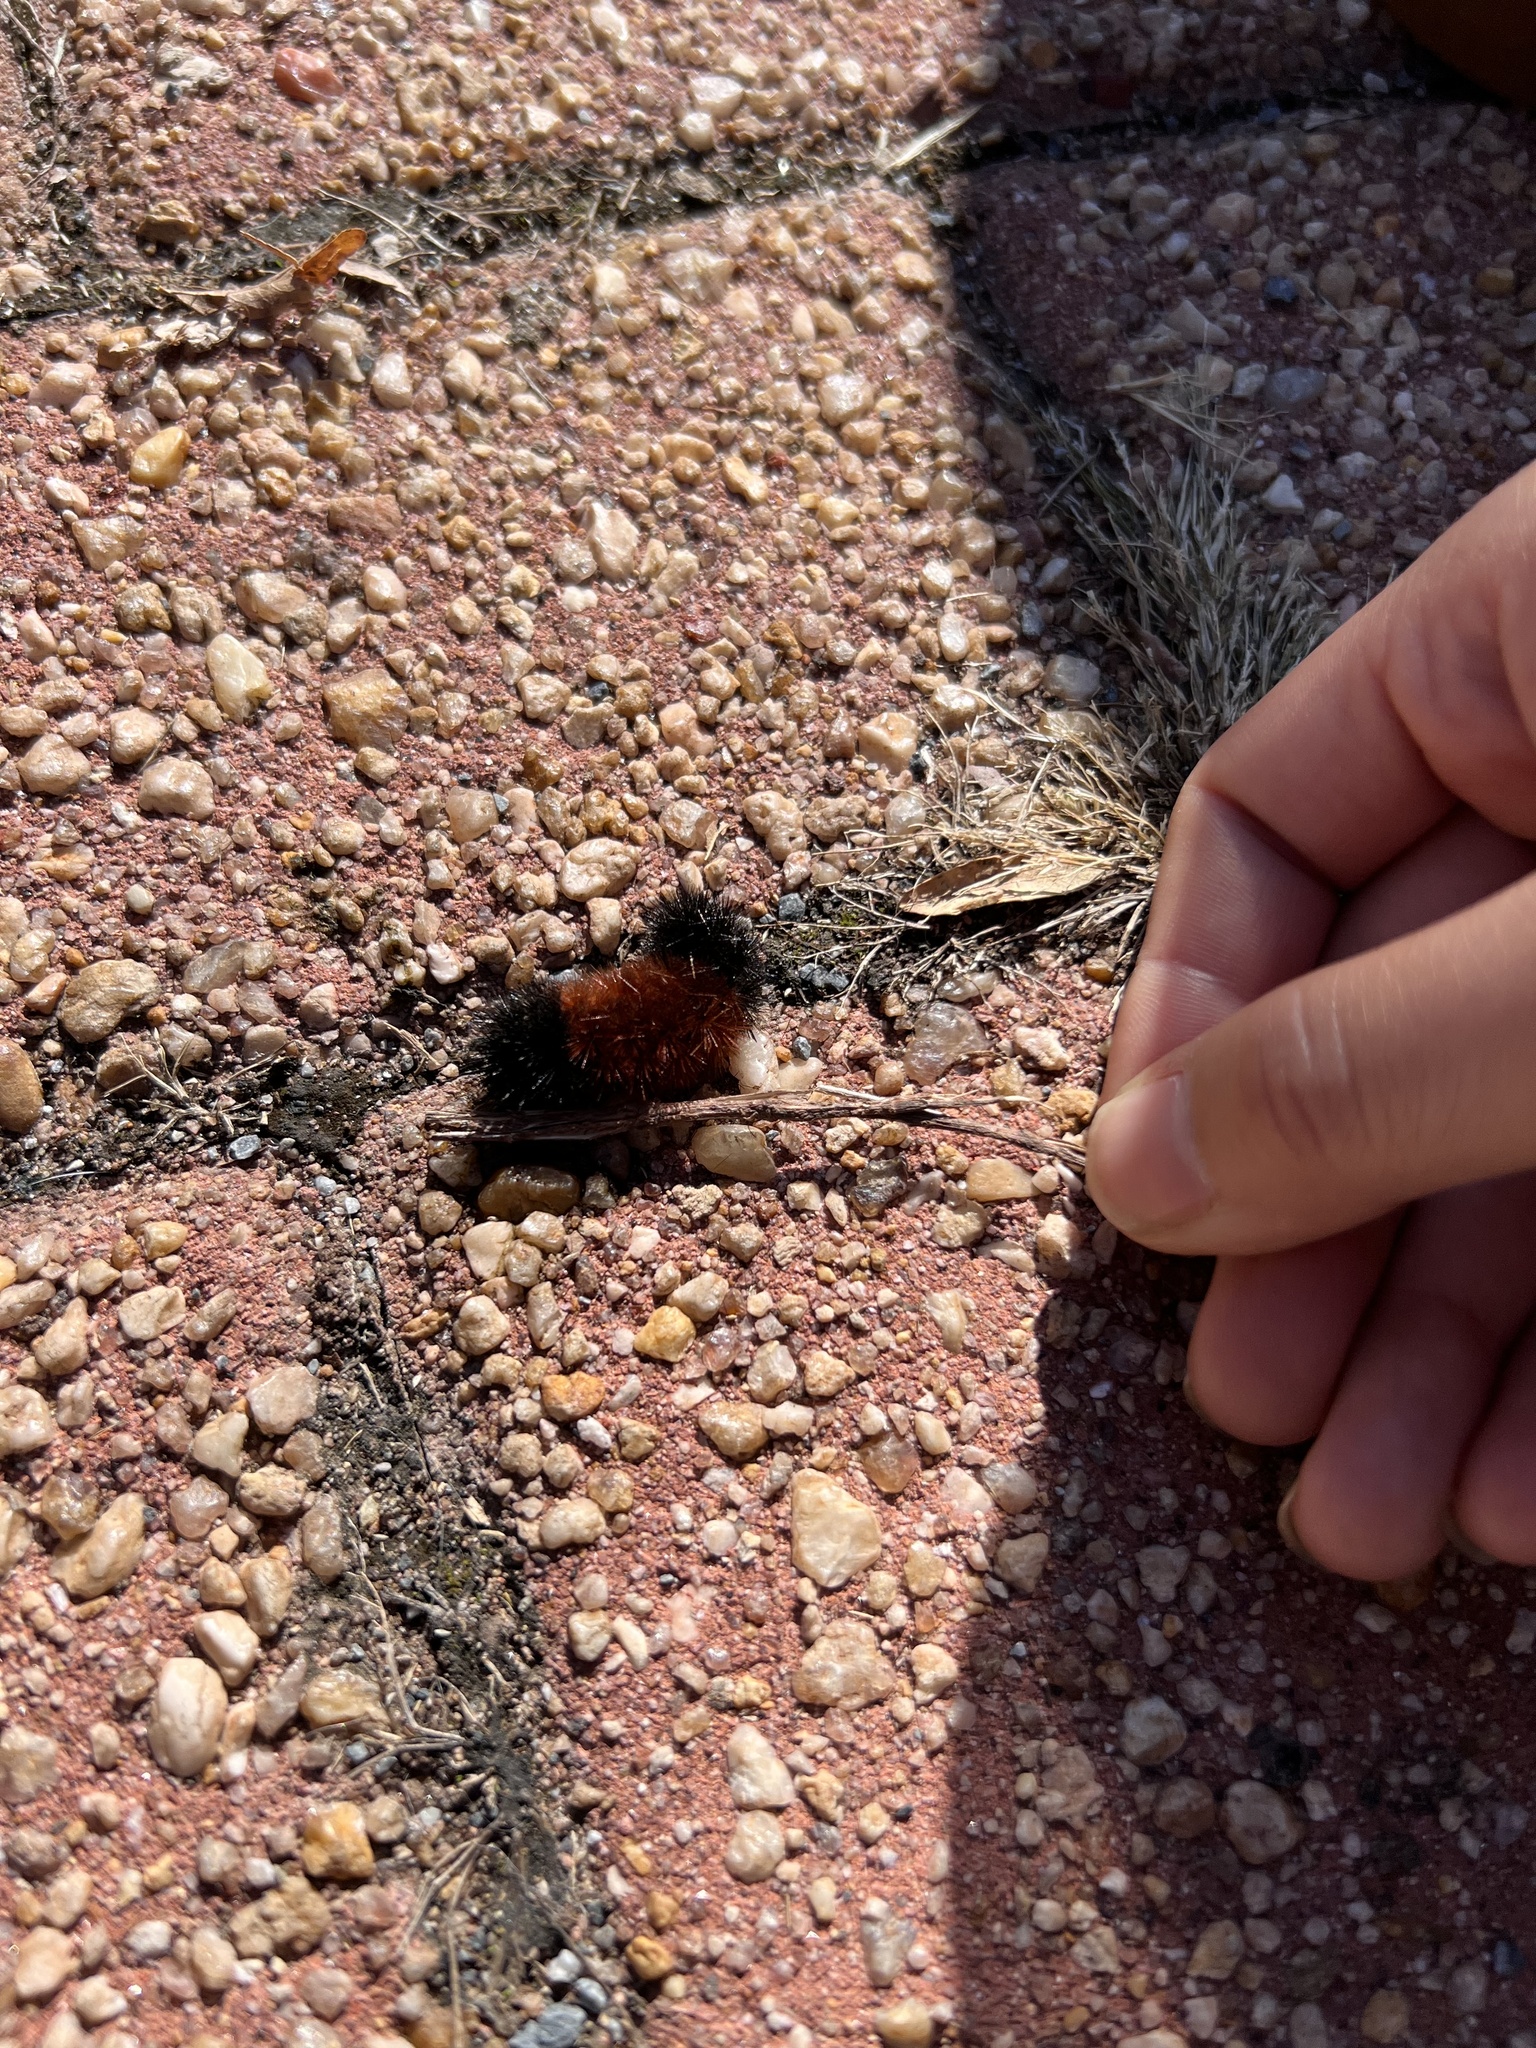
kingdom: Animalia
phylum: Arthropoda
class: Insecta
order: Lepidoptera
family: Erebidae
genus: Pyrrharctia
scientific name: Pyrrharctia isabella
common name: Isabella tiger moth
